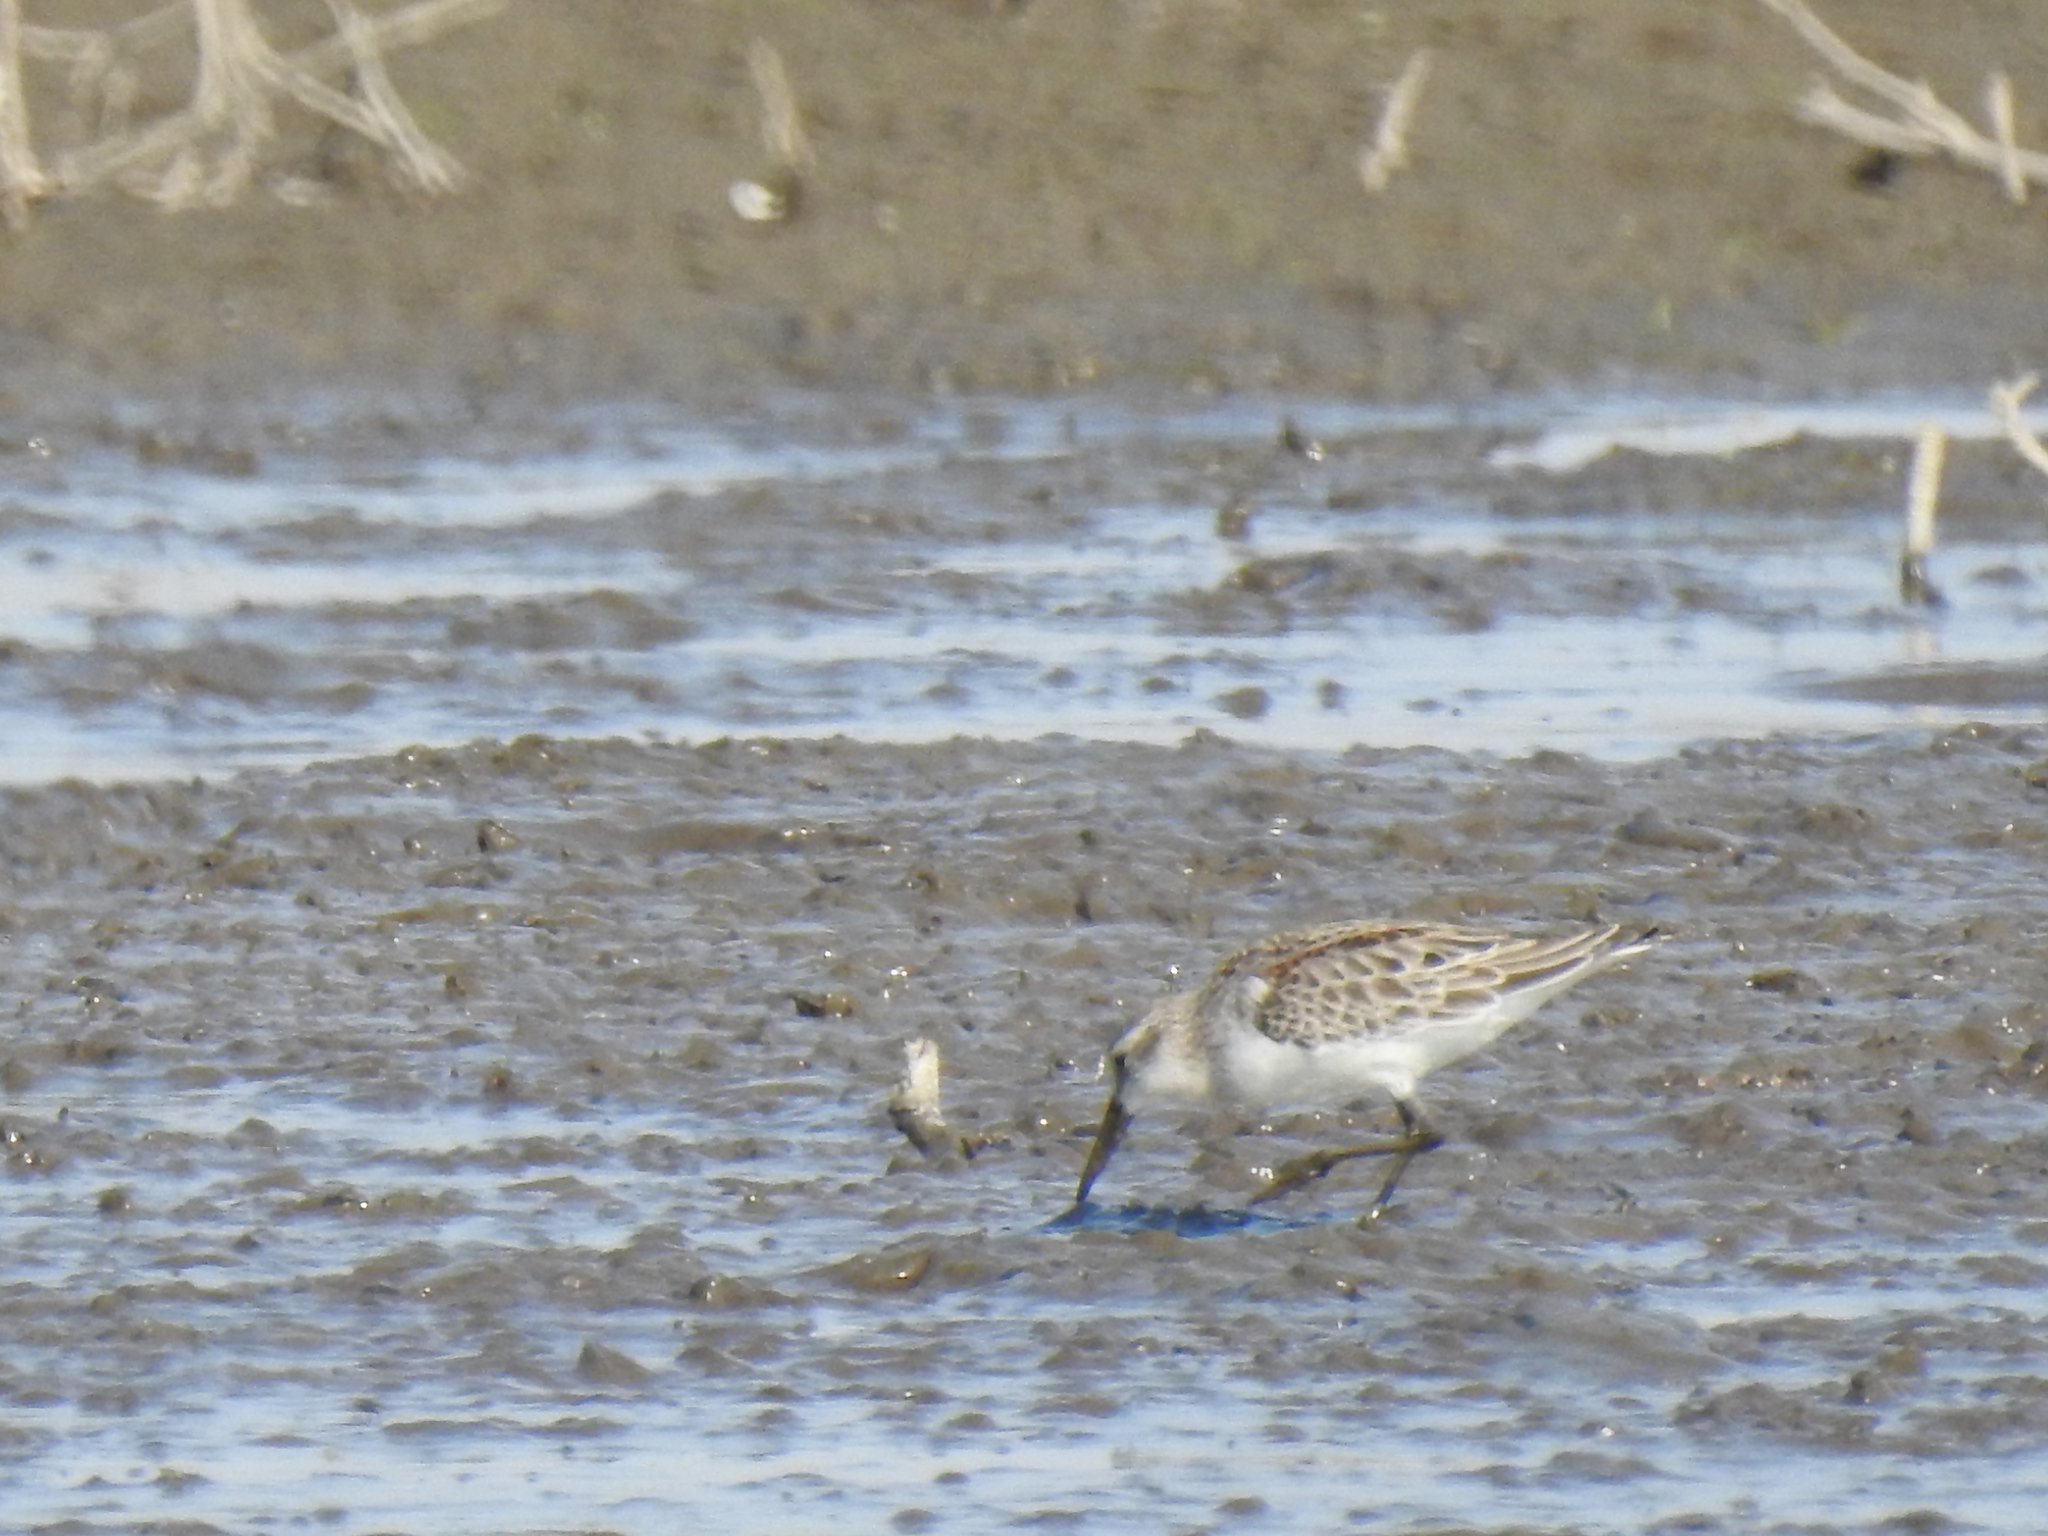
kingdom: Animalia
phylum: Chordata
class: Aves
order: Charadriiformes
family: Scolopacidae
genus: Calidris
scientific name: Calidris mauri
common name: Western sandpiper
